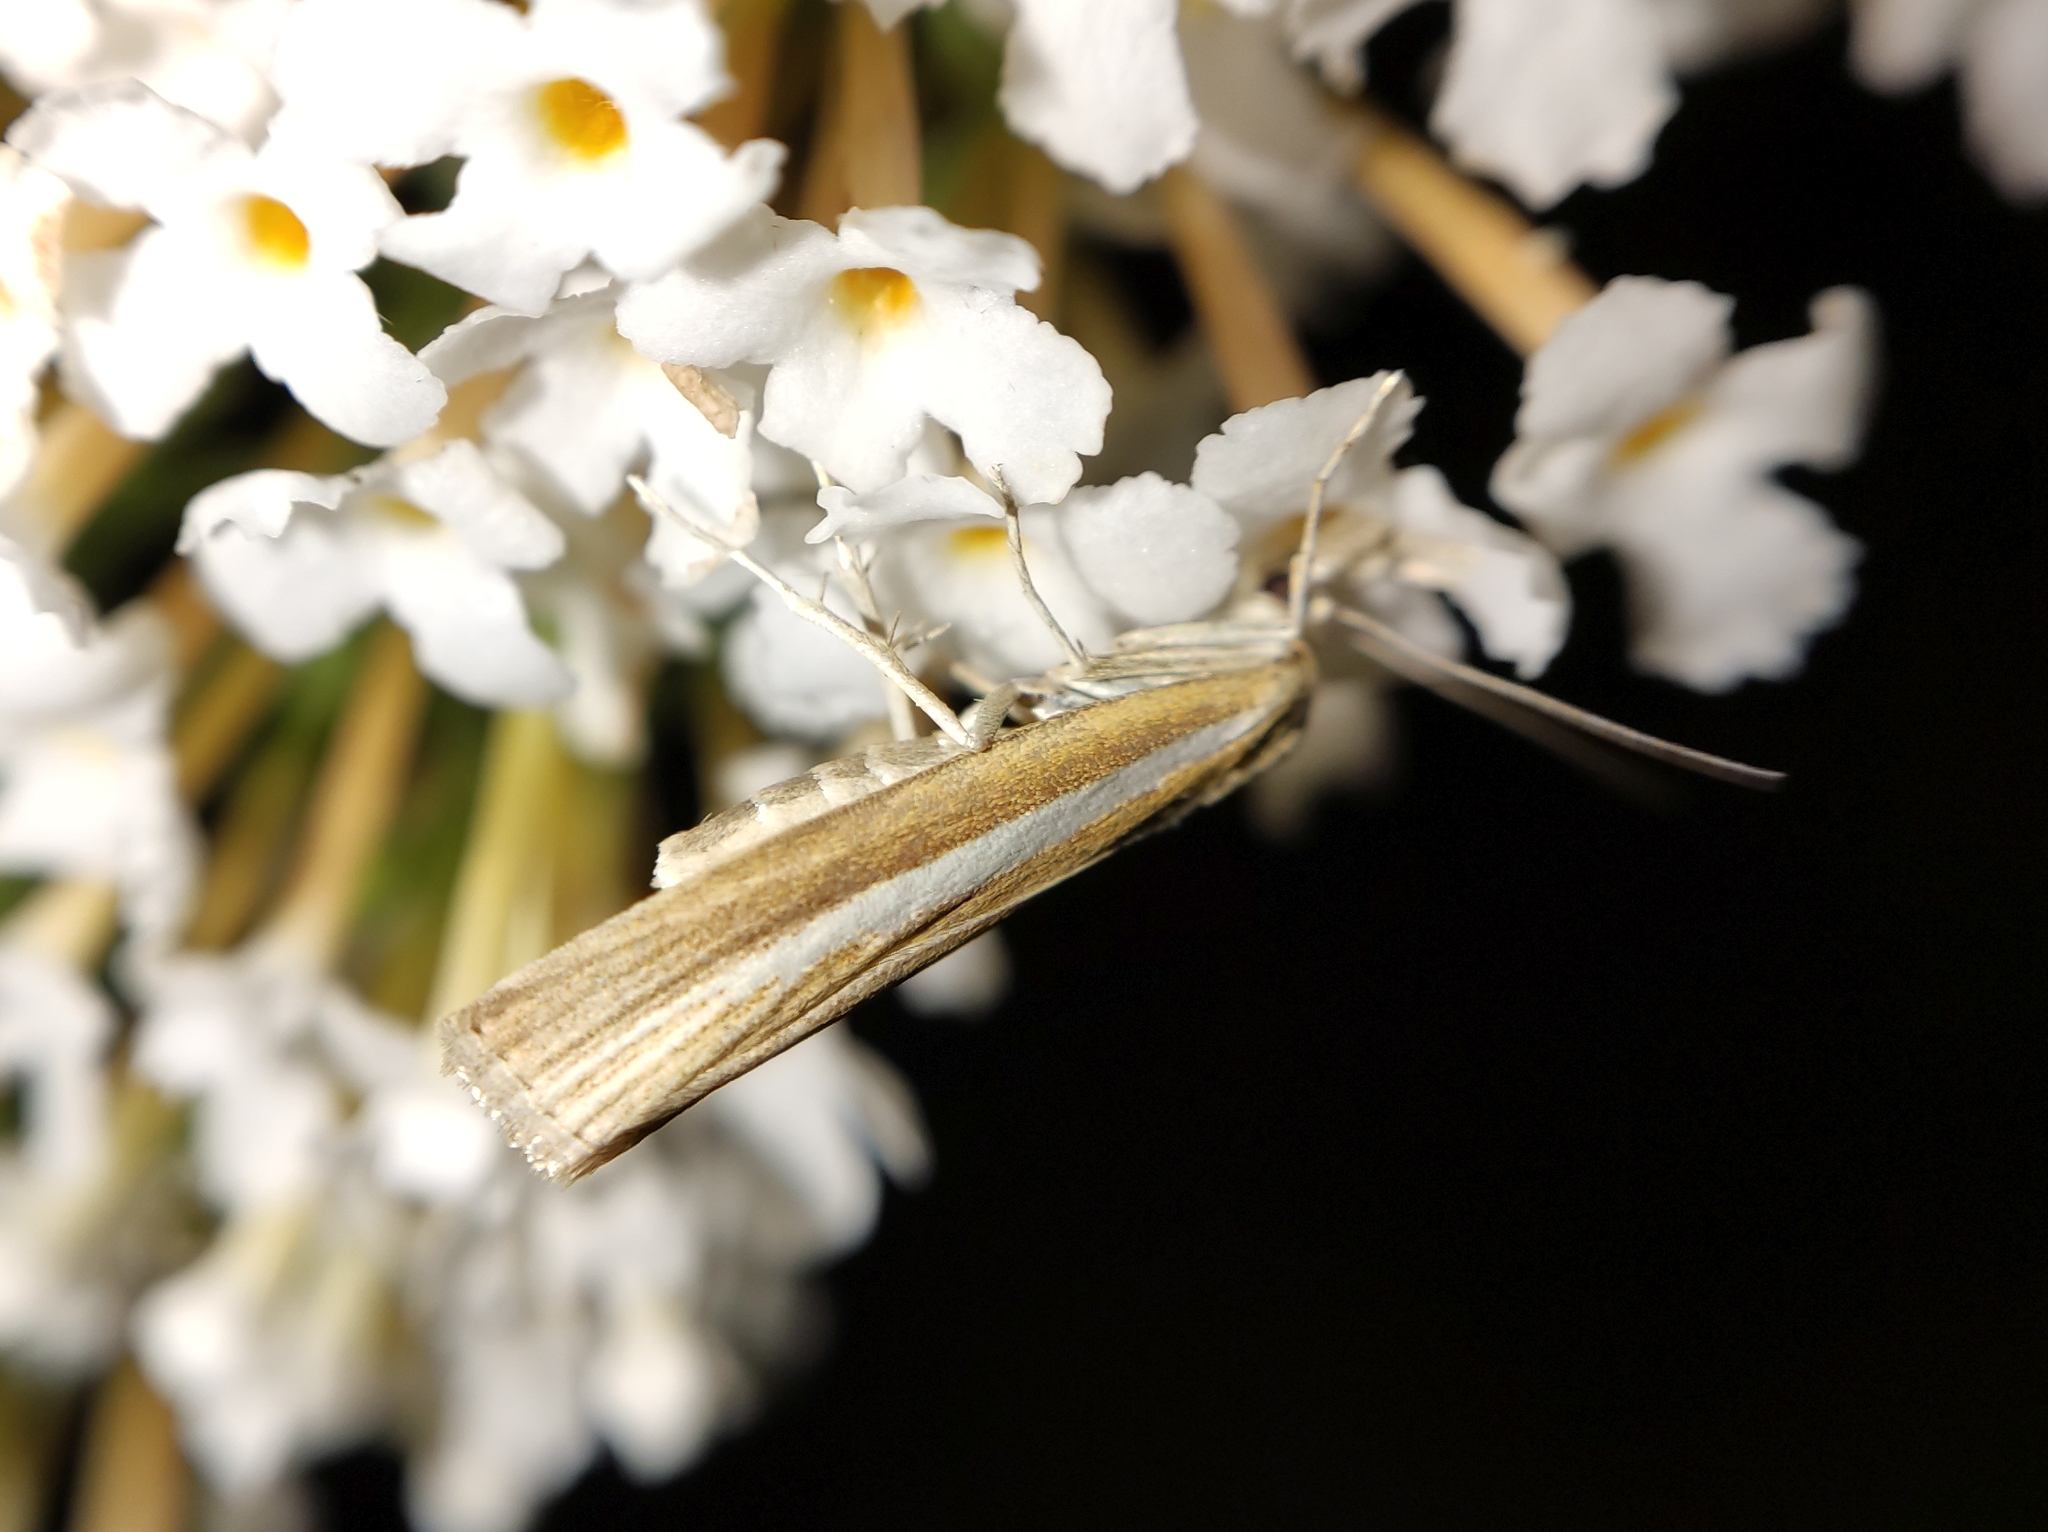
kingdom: Animalia
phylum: Arthropoda
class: Insecta
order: Lepidoptera
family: Crambidae
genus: Agriphila
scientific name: Agriphila selasella
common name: Pale-streak grass-veneer
